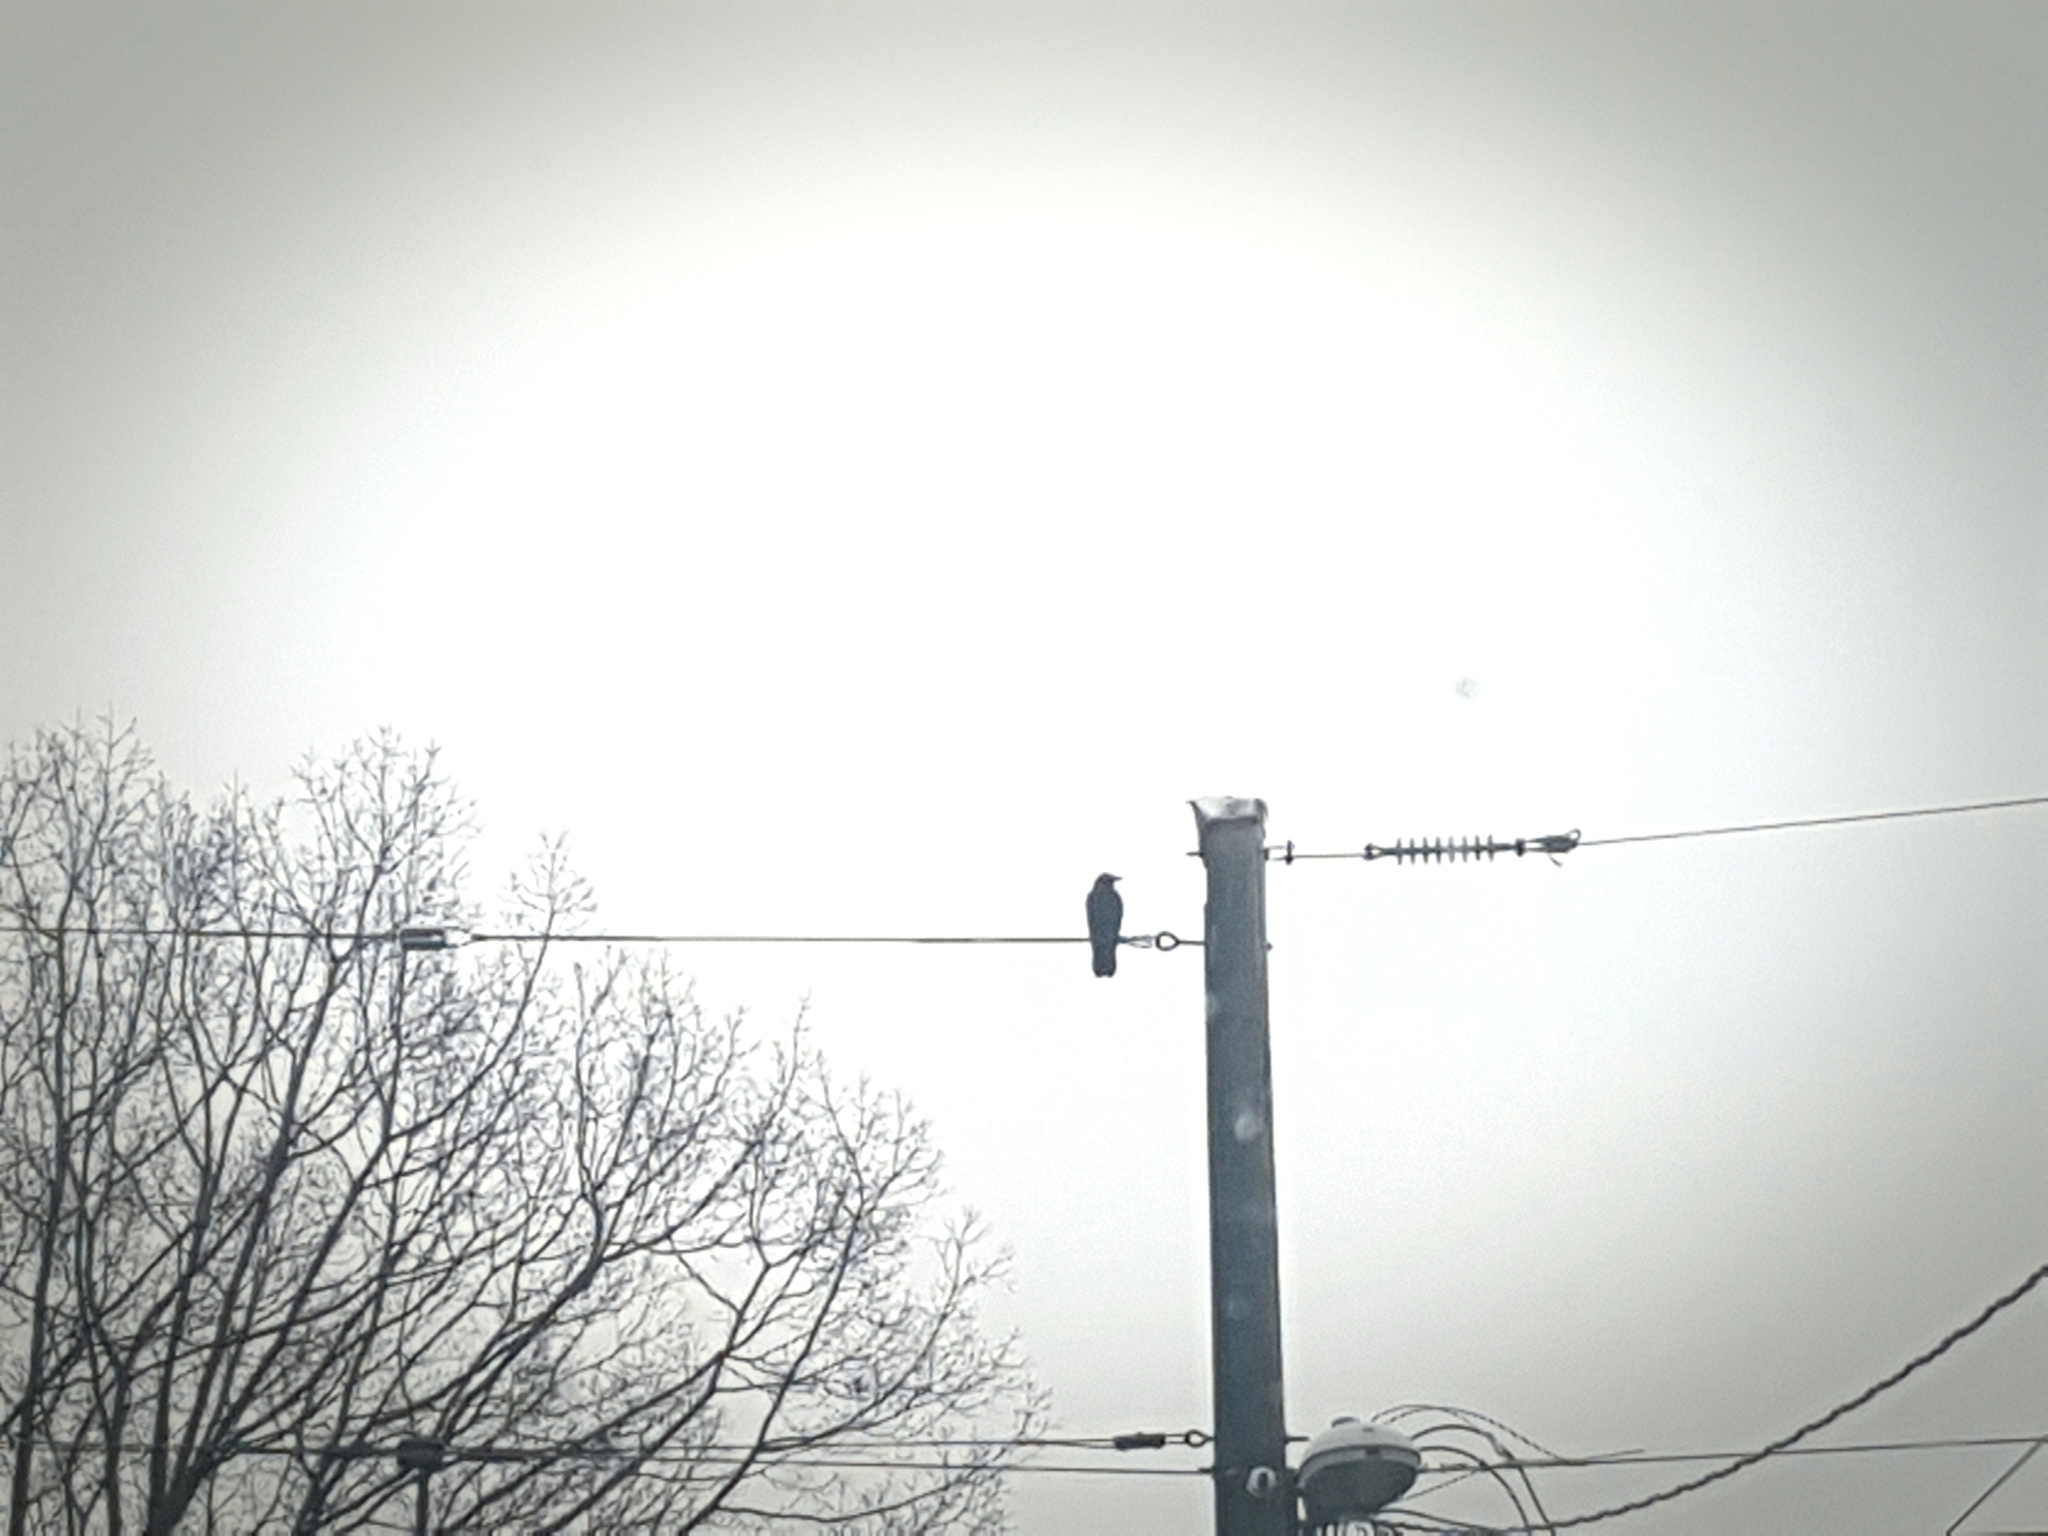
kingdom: Animalia
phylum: Chordata
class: Aves
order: Passeriformes
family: Corvidae
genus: Corvus
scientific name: Corvus brachyrhynchos
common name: American crow
